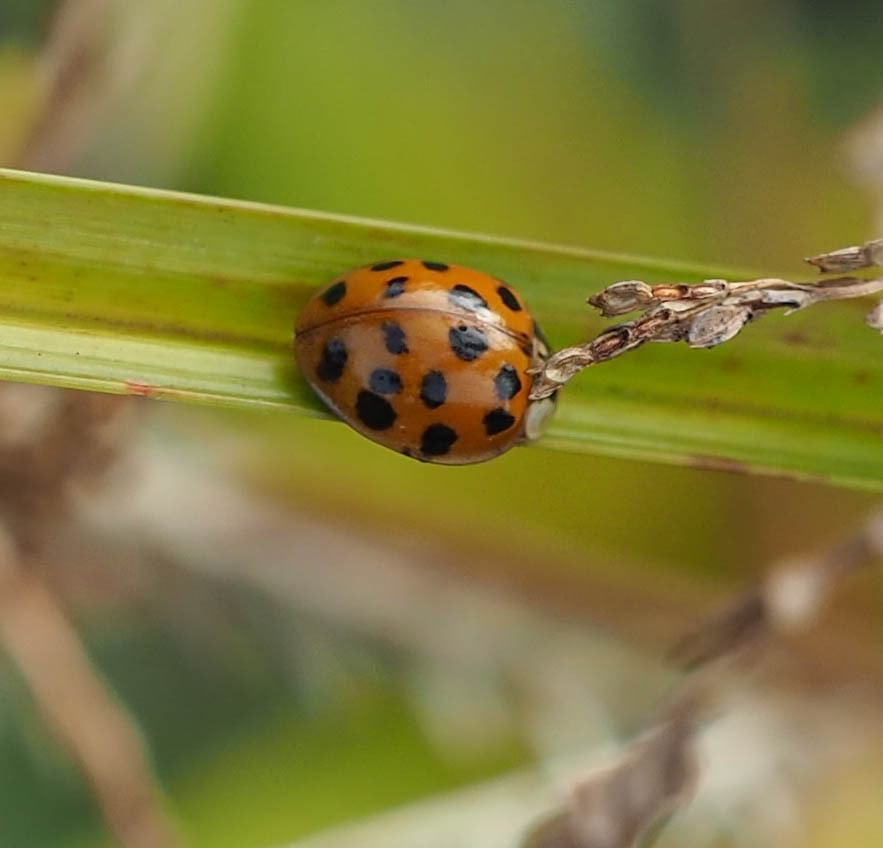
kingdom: Animalia
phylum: Arthropoda
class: Insecta
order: Coleoptera
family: Coccinellidae
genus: Harmonia
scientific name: Harmonia axyridis
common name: Harlequin ladybird
